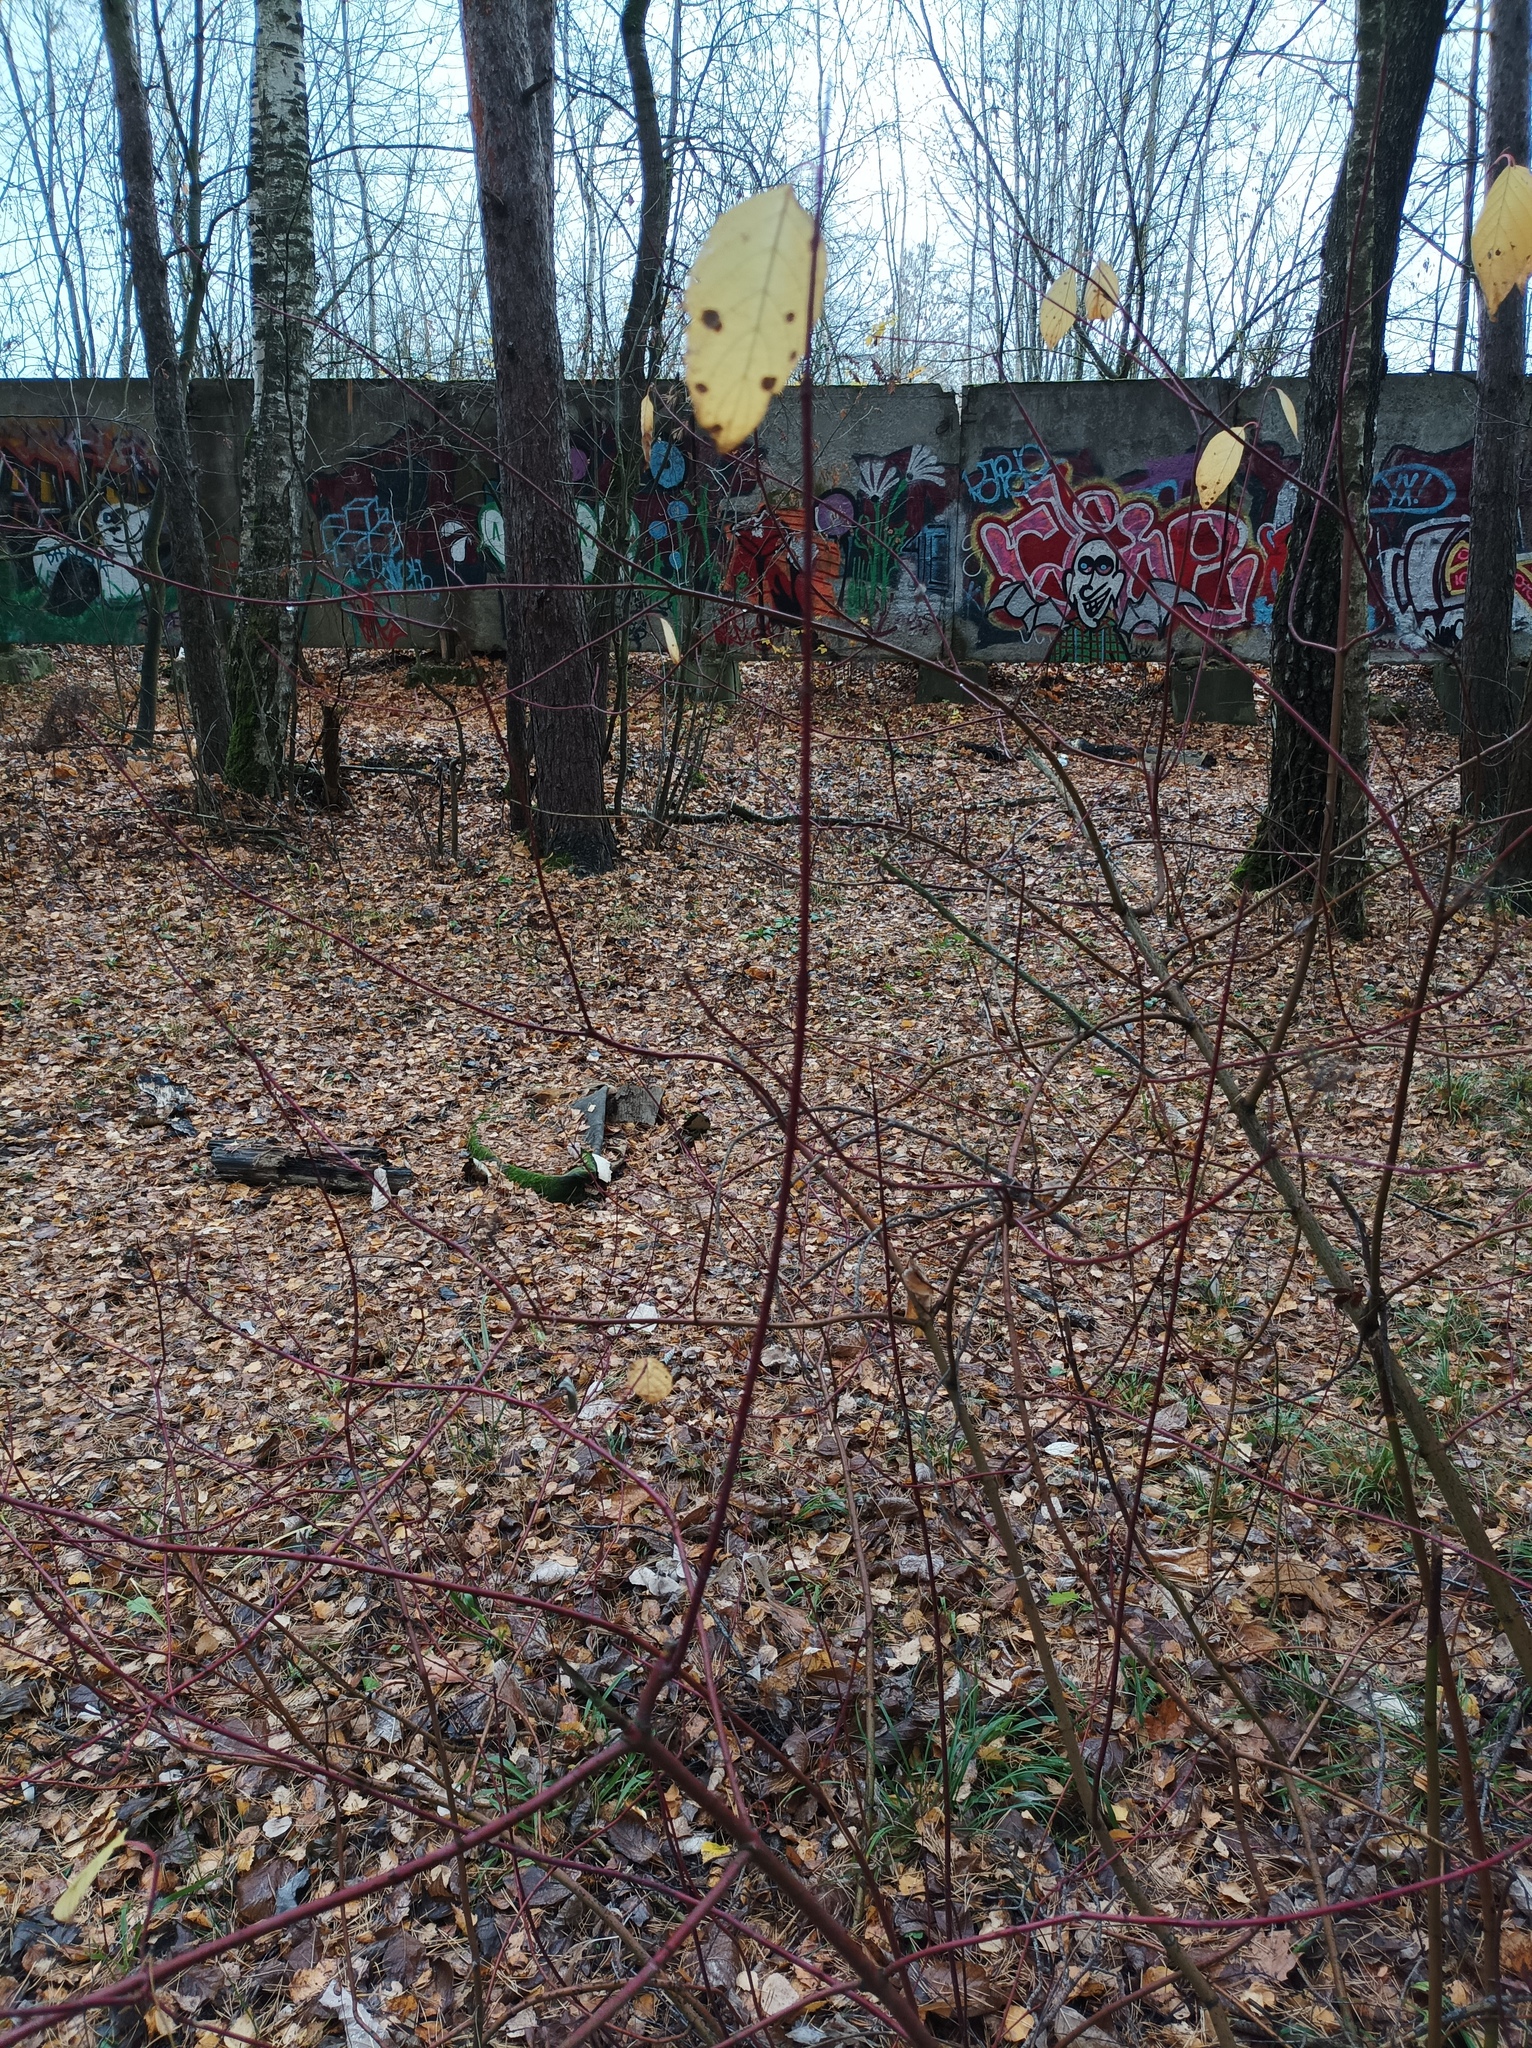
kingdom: Plantae
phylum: Tracheophyta
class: Magnoliopsida
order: Cornales
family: Cornaceae
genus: Cornus
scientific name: Cornus sericea
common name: Red-osier dogwood
